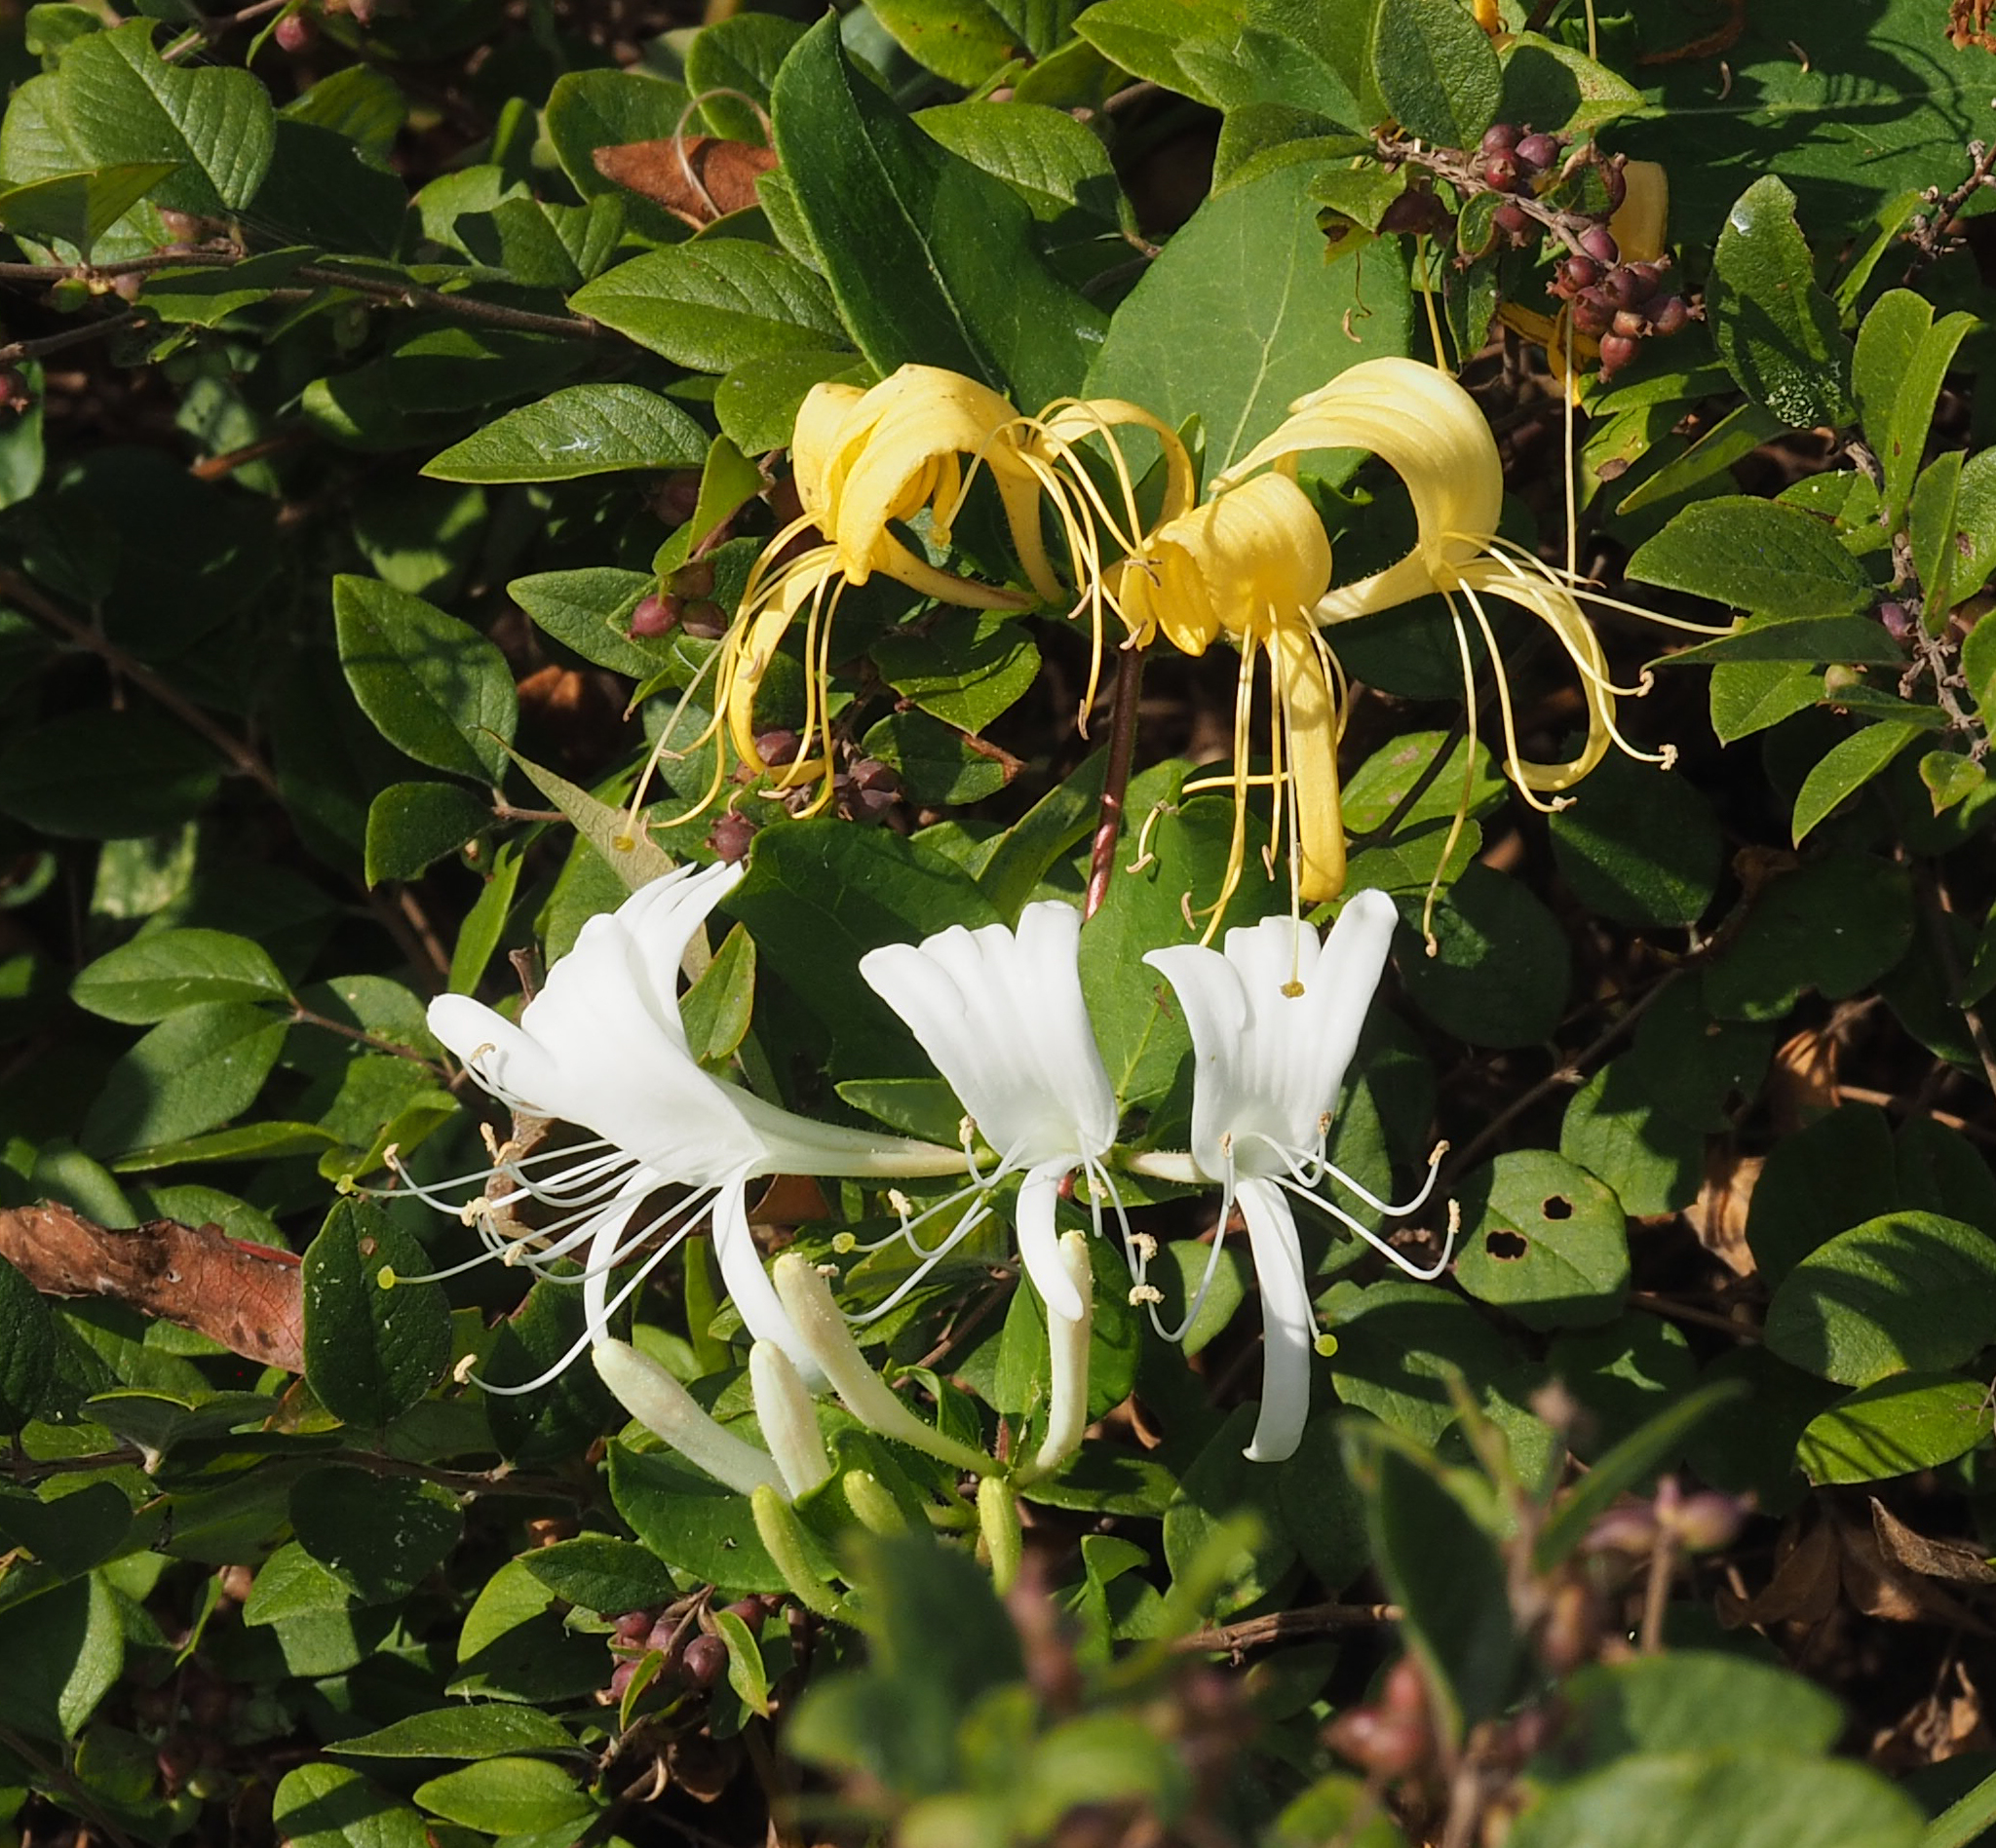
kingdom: Plantae
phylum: Tracheophyta
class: Magnoliopsida
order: Dipsacales
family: Caprifoliaceae
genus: Lonicera
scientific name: Lonicera japonica
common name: Japanese honeysuckle
